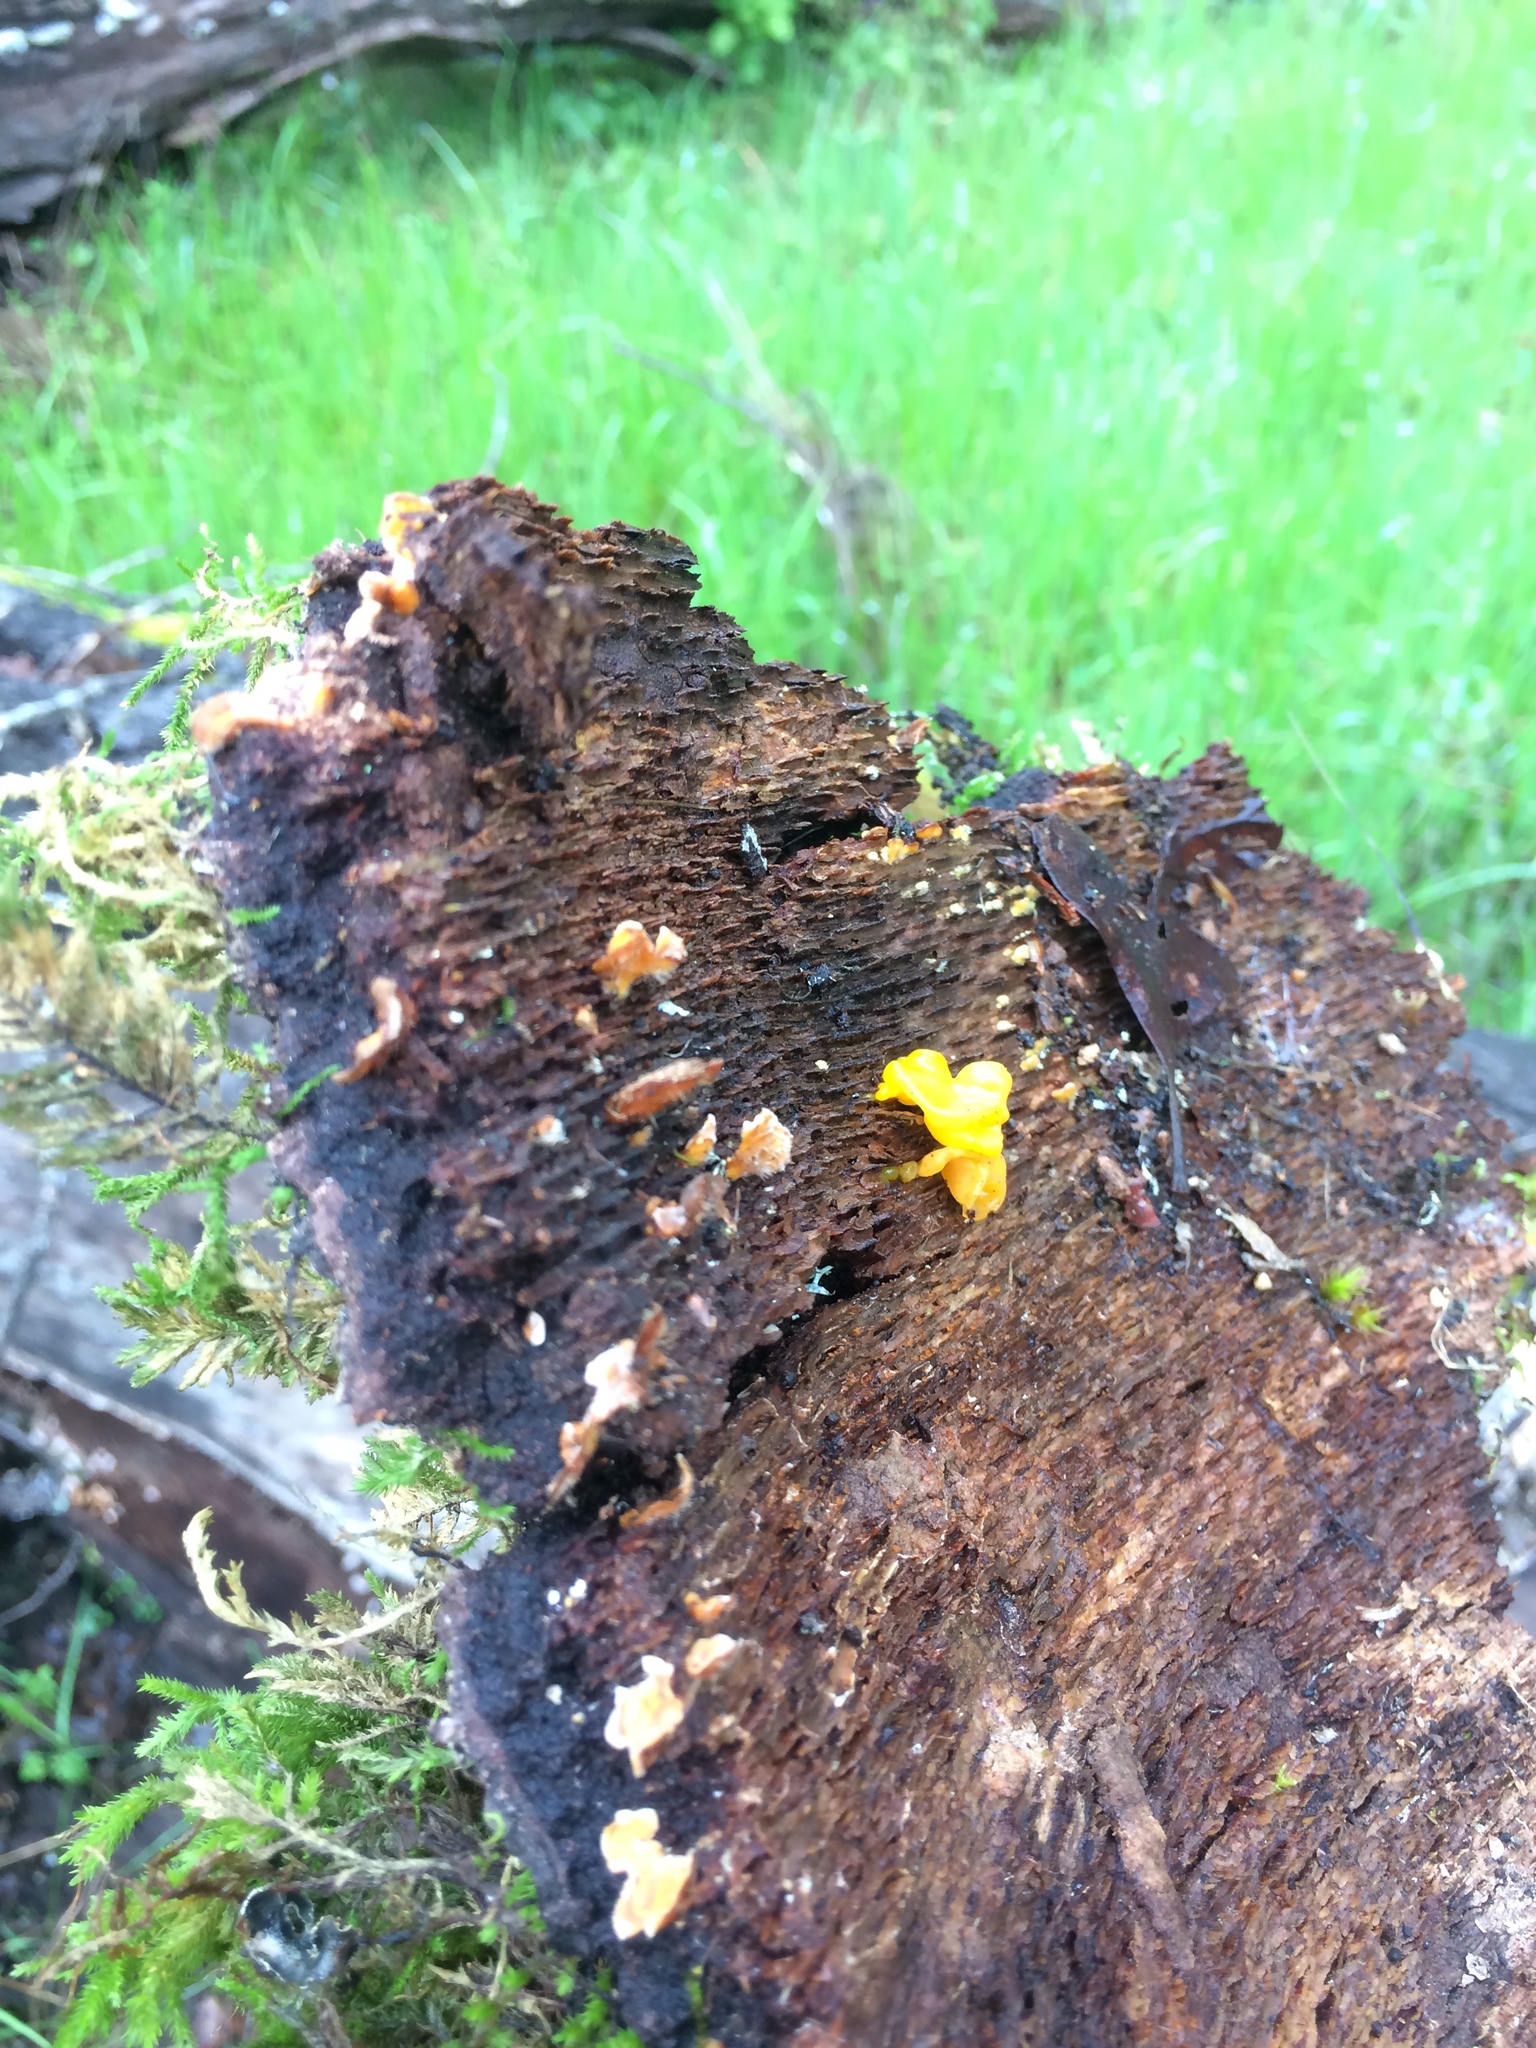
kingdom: Fungi
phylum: Basidiomycota
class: Tremellomycetes
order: Tremellales
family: Tremellaceae
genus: Tremella
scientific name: Tremella mesenterica
